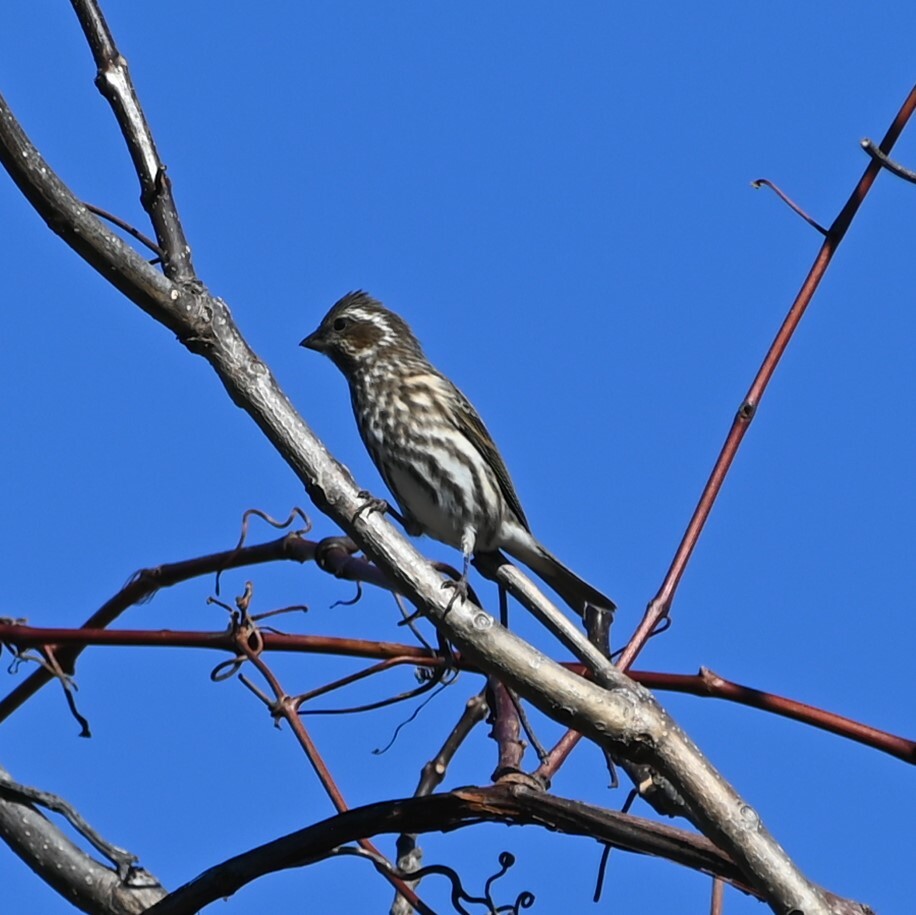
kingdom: Animalia
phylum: Chordata
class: Aves
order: Passeriformes
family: Fringillidae
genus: Haemorhous
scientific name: Haemorhous purpureus
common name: Purple finch
